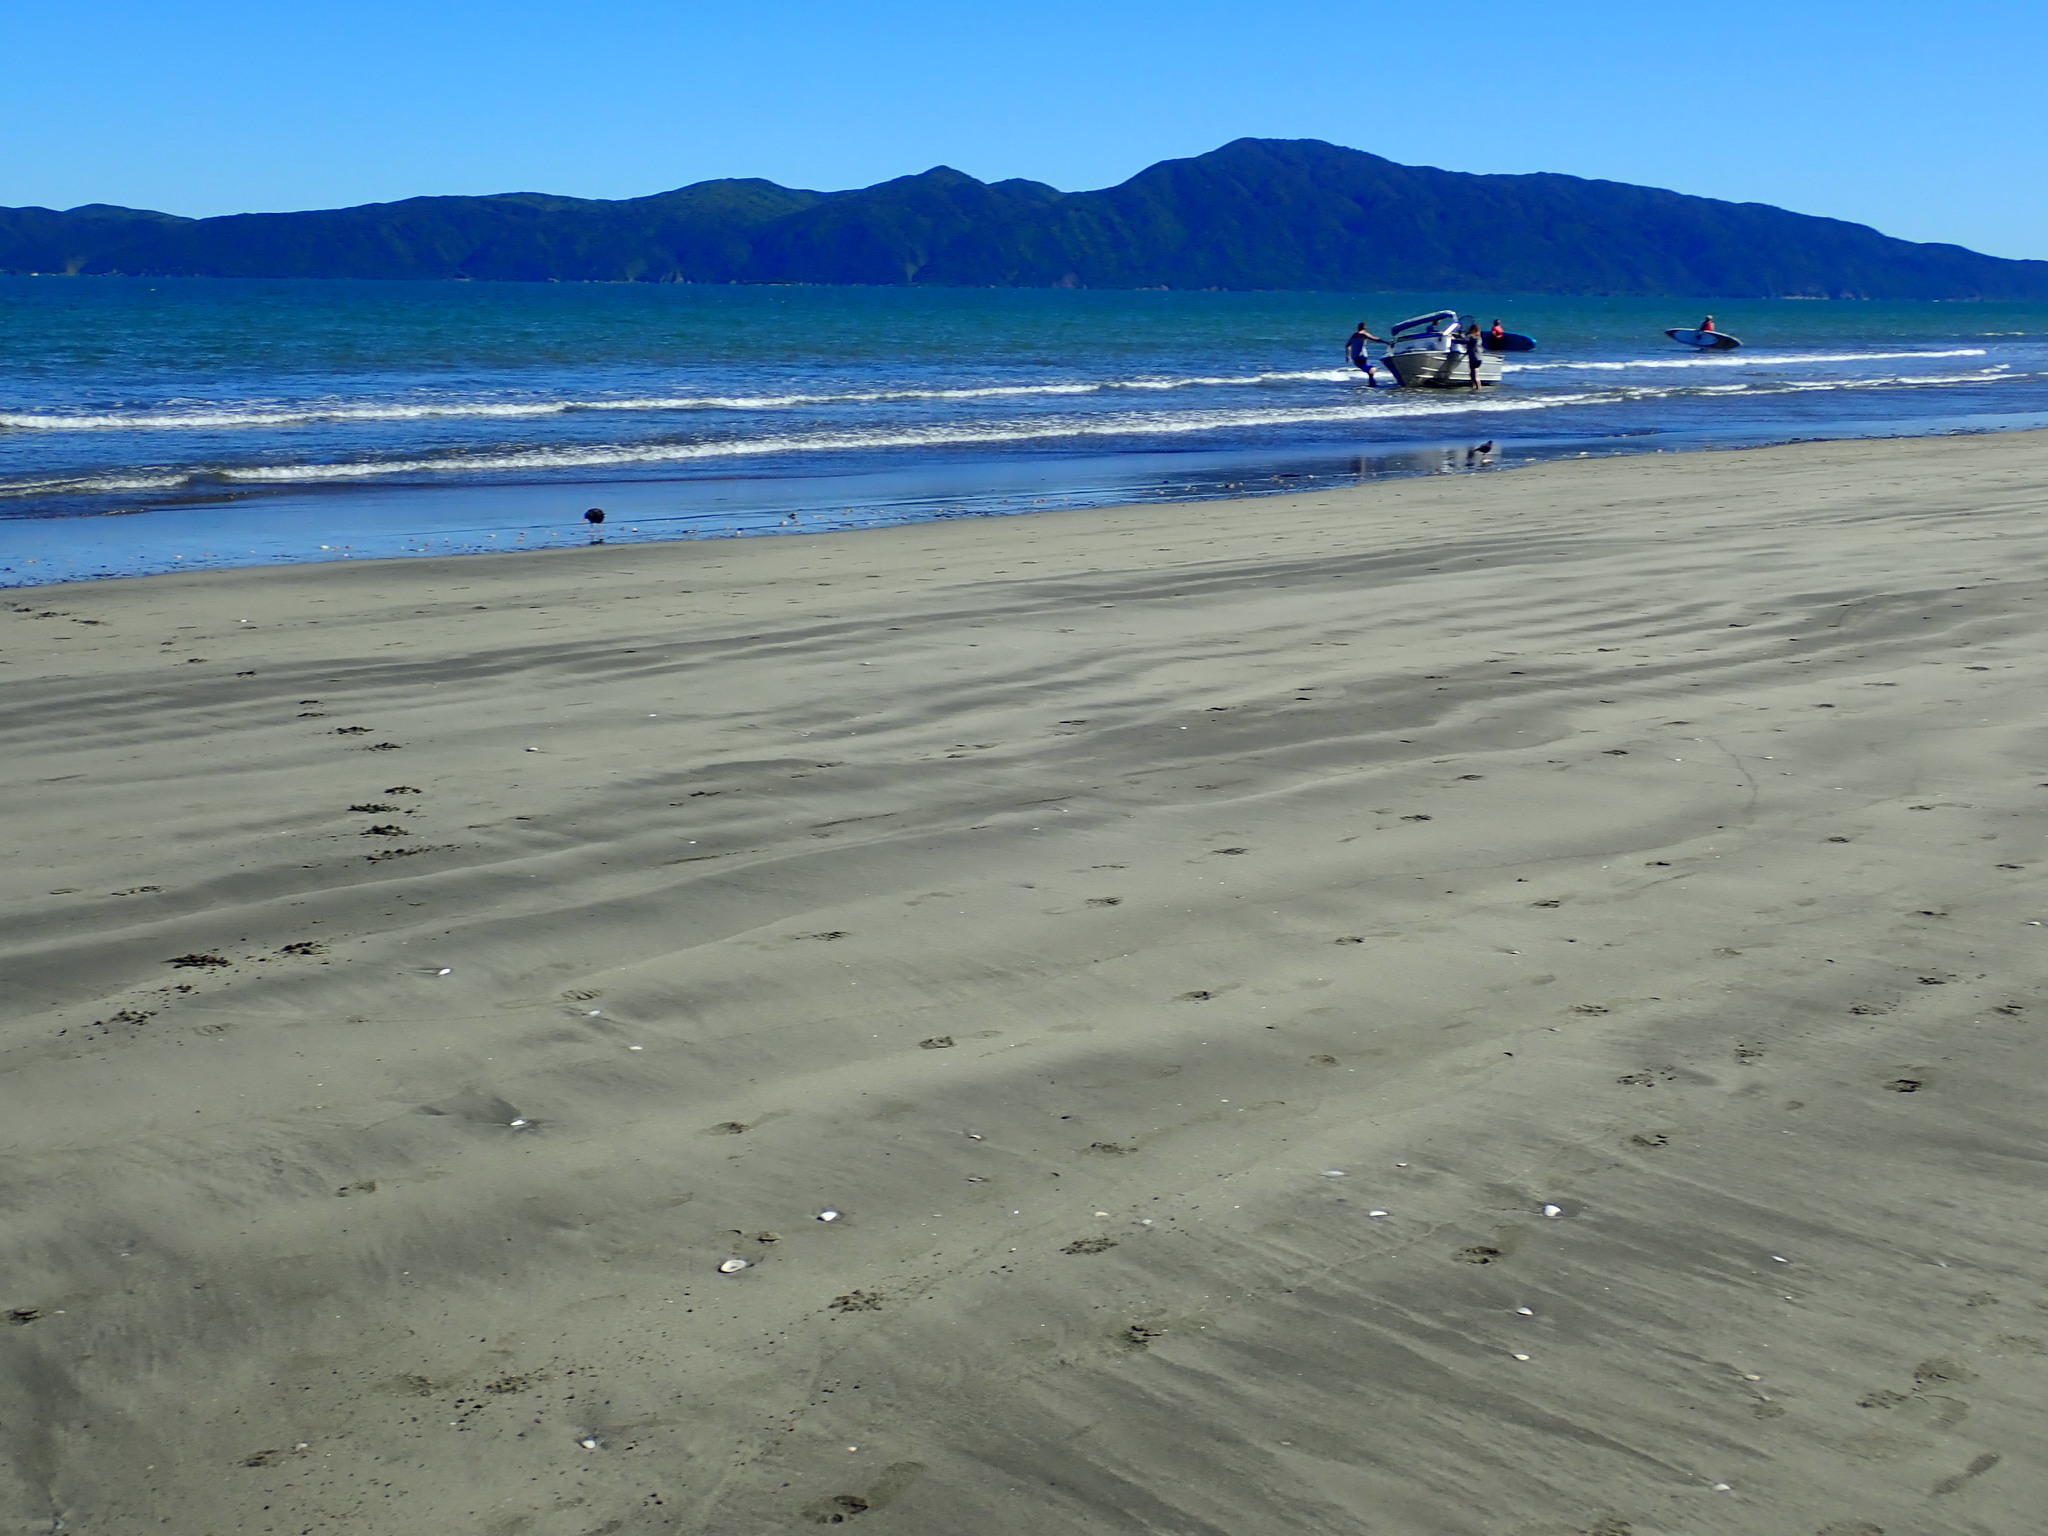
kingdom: Animalia
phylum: Chordata
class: Aves
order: Charadriiformes
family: Haematopodidae
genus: Haematopus
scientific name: Haematopus unicolor
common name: Variable oystercatcher
